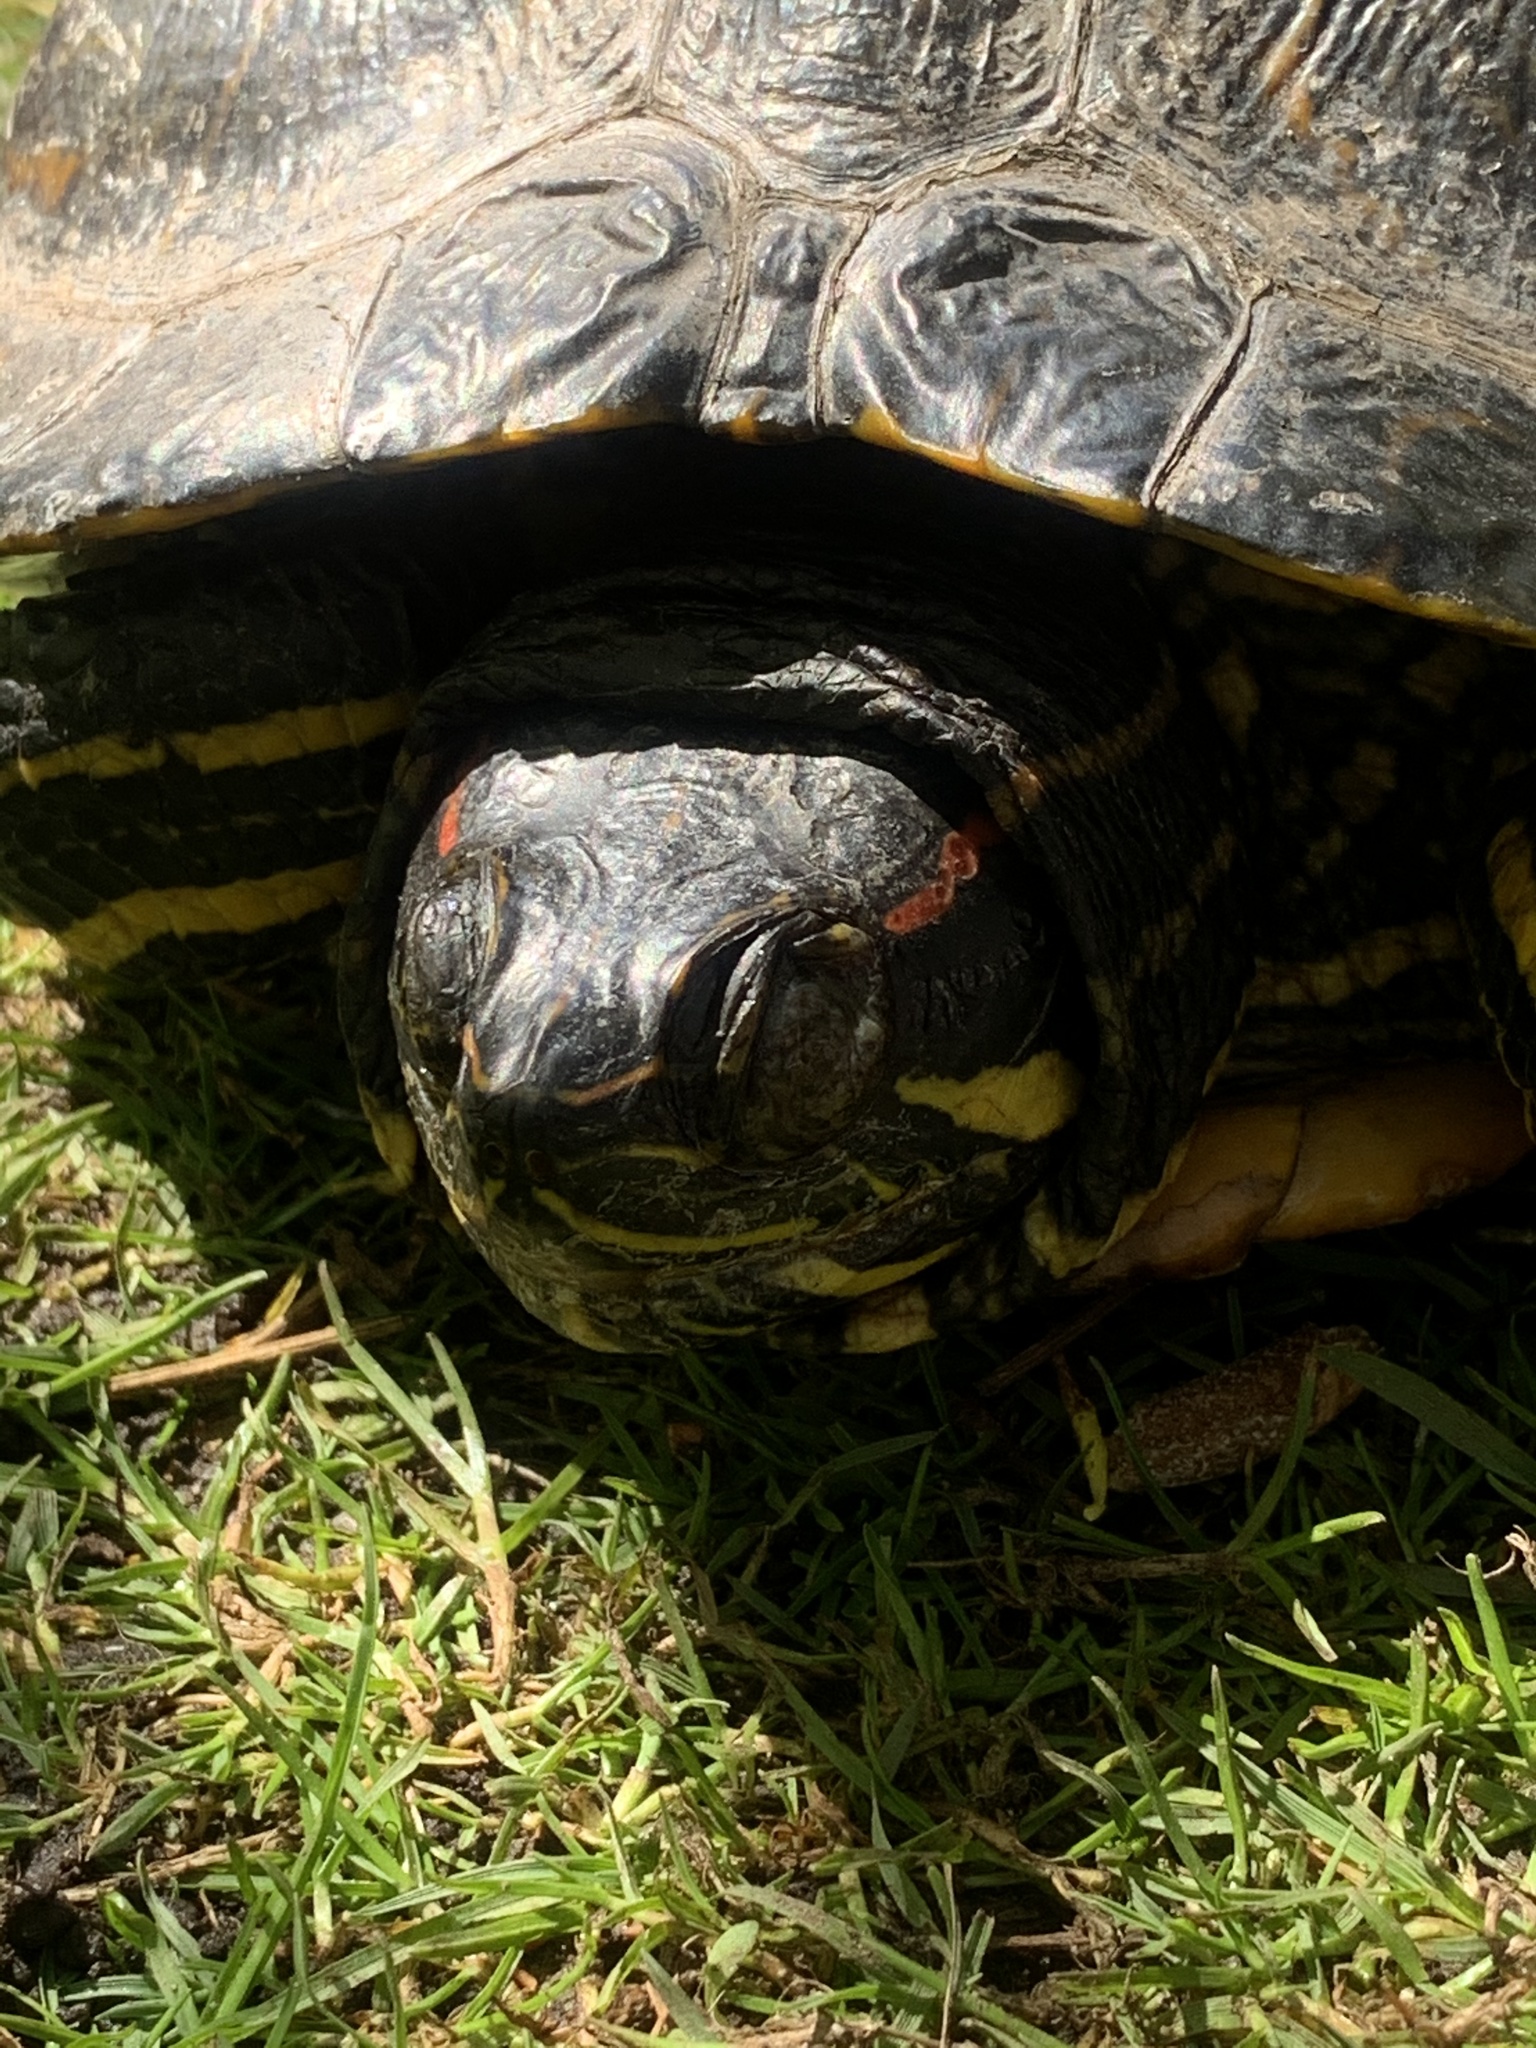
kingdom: Animalia
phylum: Chordata
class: Testudines
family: Emydidae
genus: Trachemys
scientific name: Trachemys scripta
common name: Slider
